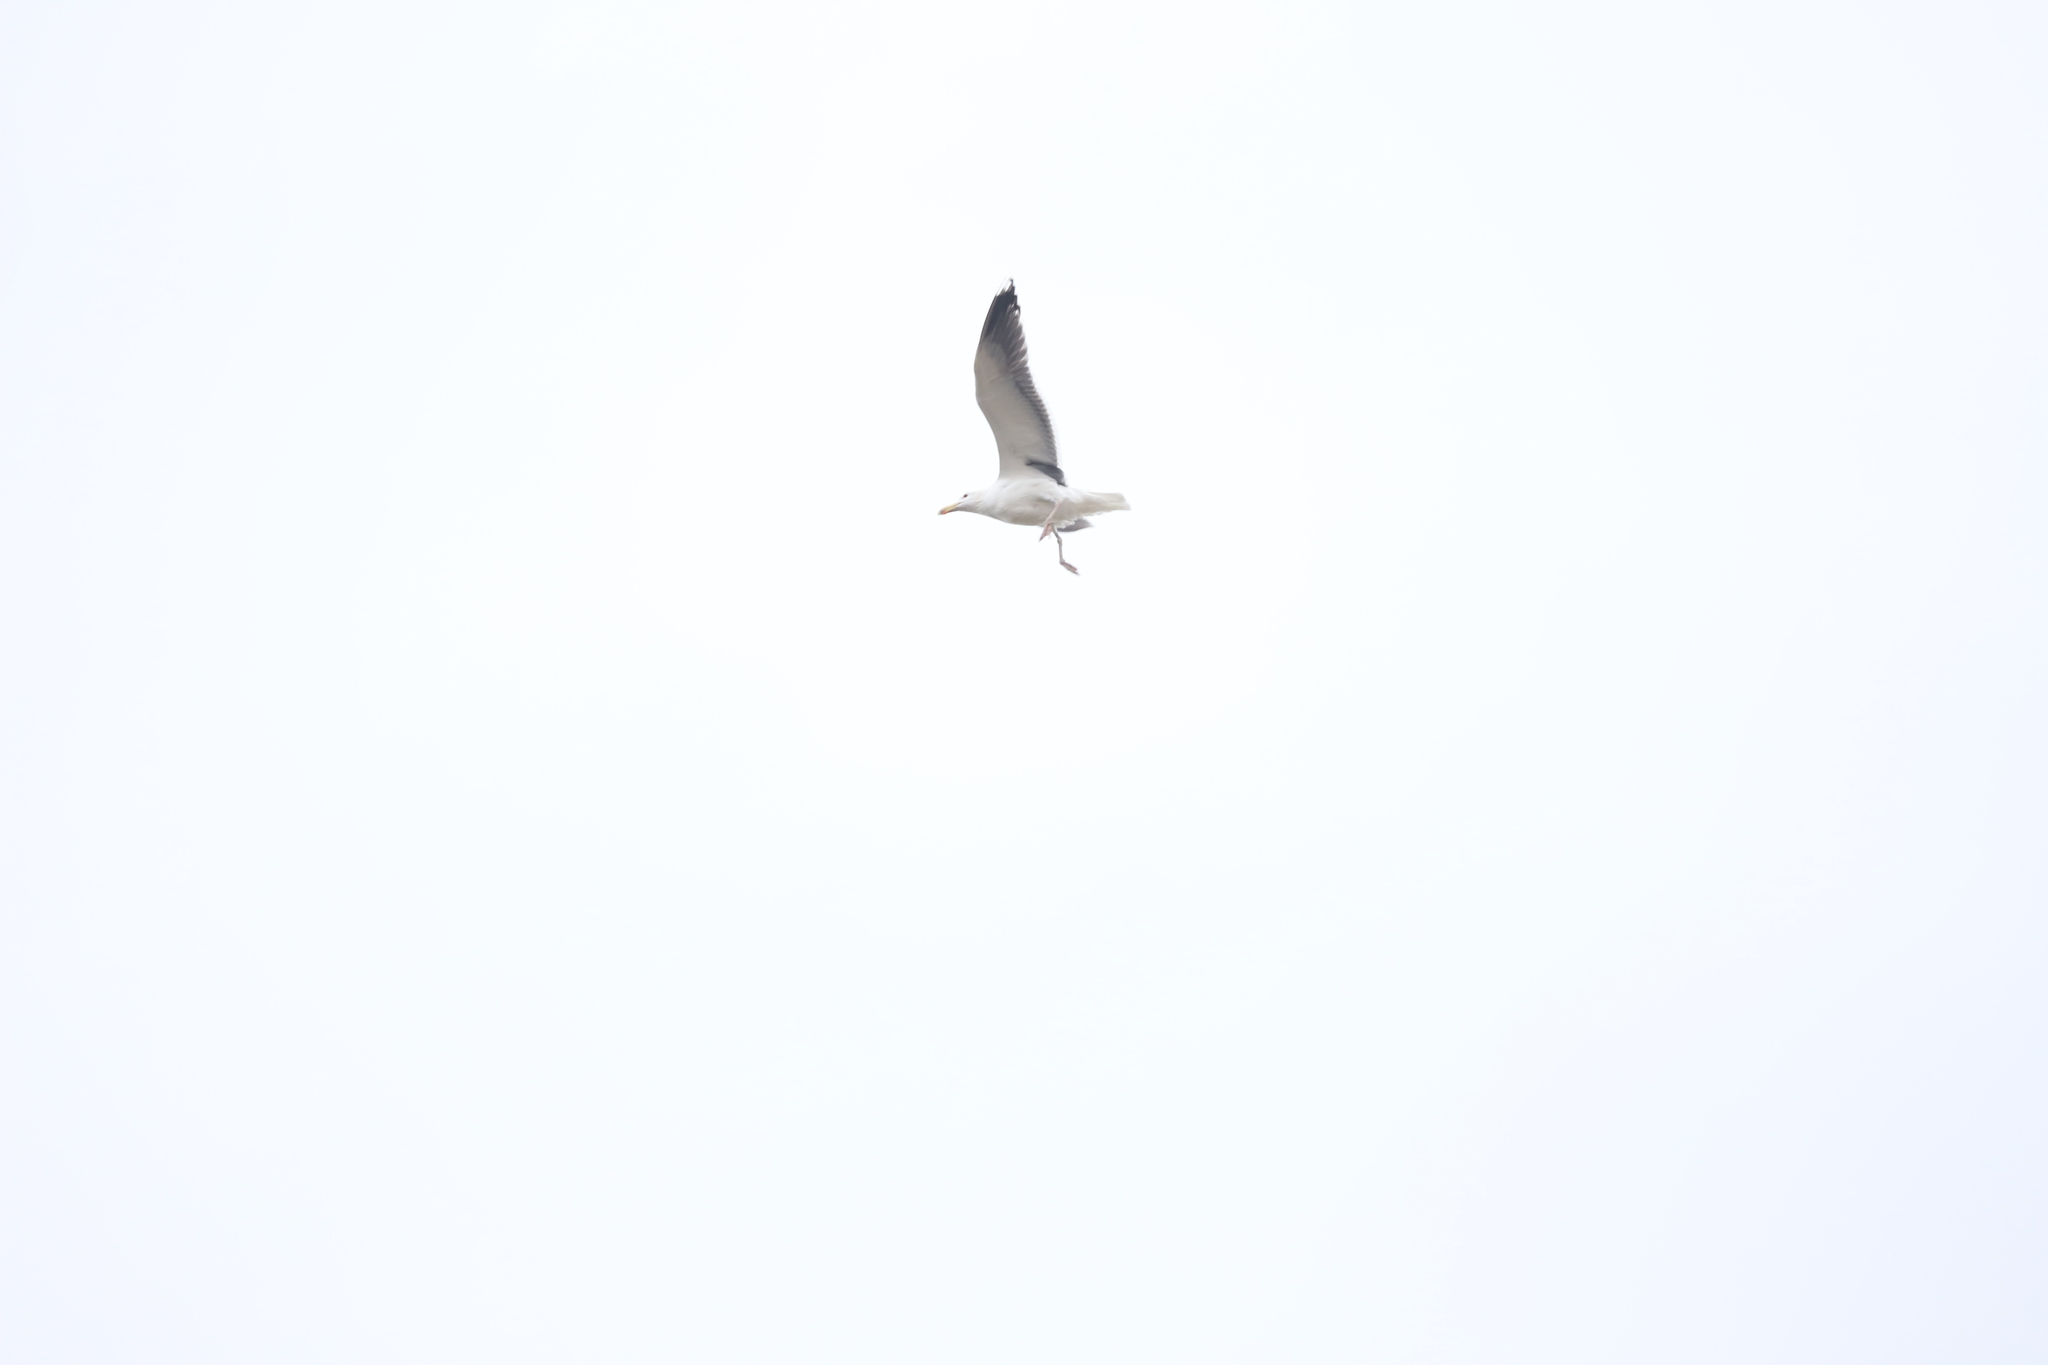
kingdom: Animalia
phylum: Chordata
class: Aves
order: Charadriiformes
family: Laridae
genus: Larus
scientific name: Larus argentatus
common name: Herring gull
